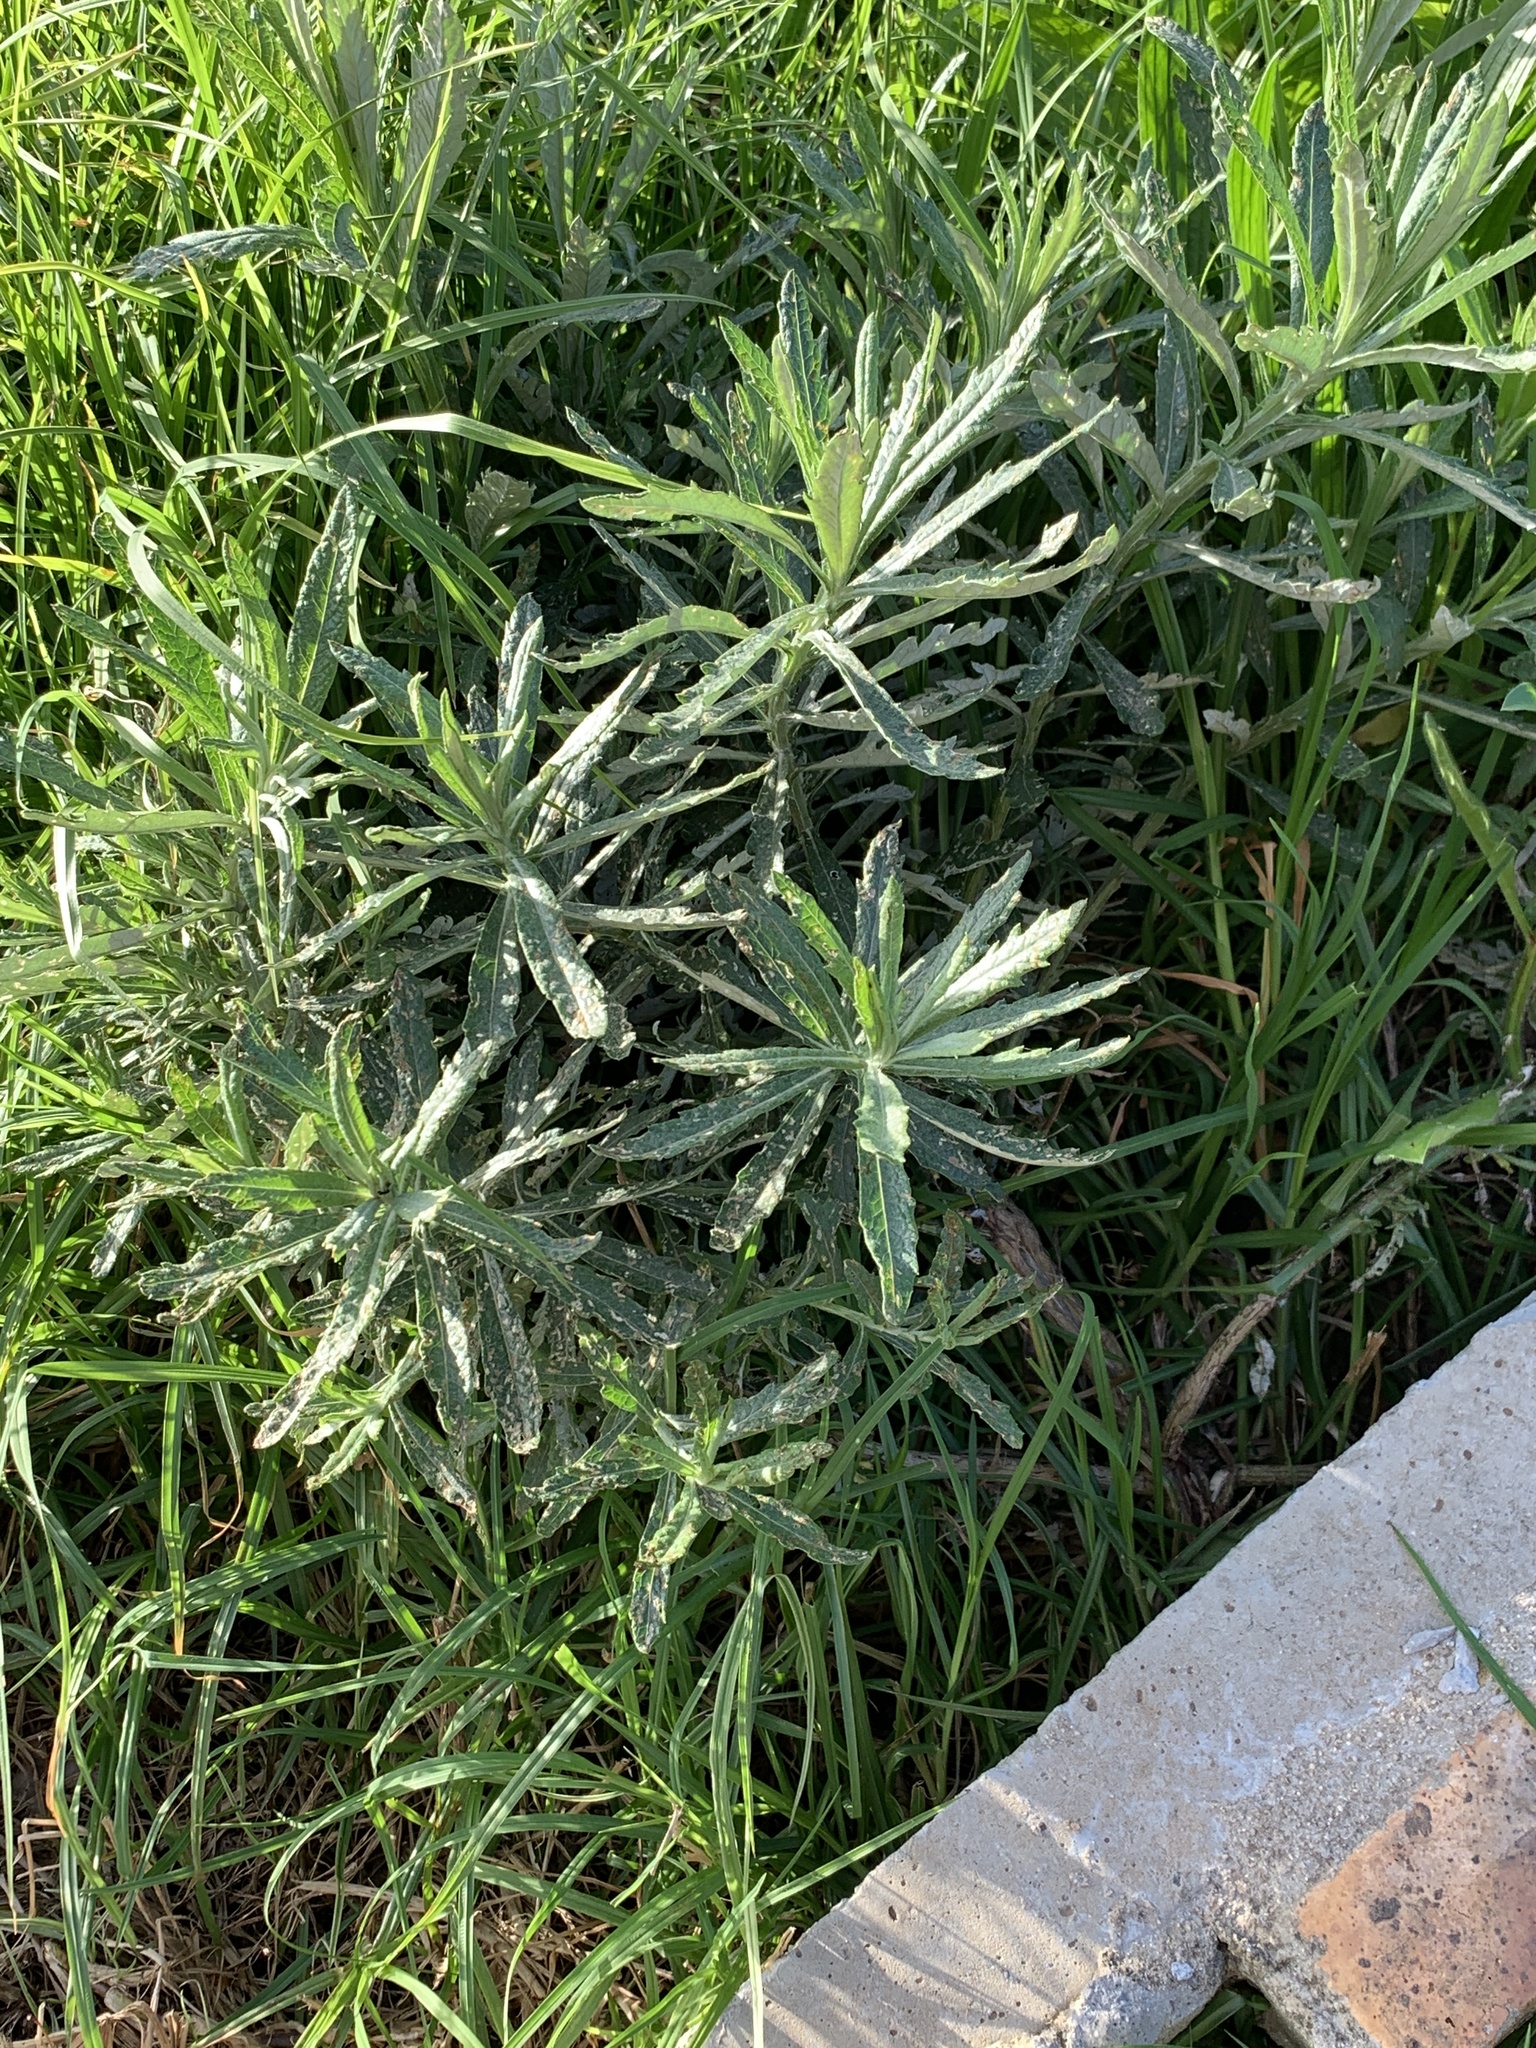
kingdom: Plantae
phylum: Tracheophyta
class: Magnoliopsida
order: Asterales
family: Asteraceae
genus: Senecio
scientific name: Senecio pterophorus
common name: Shoddy ragwort
